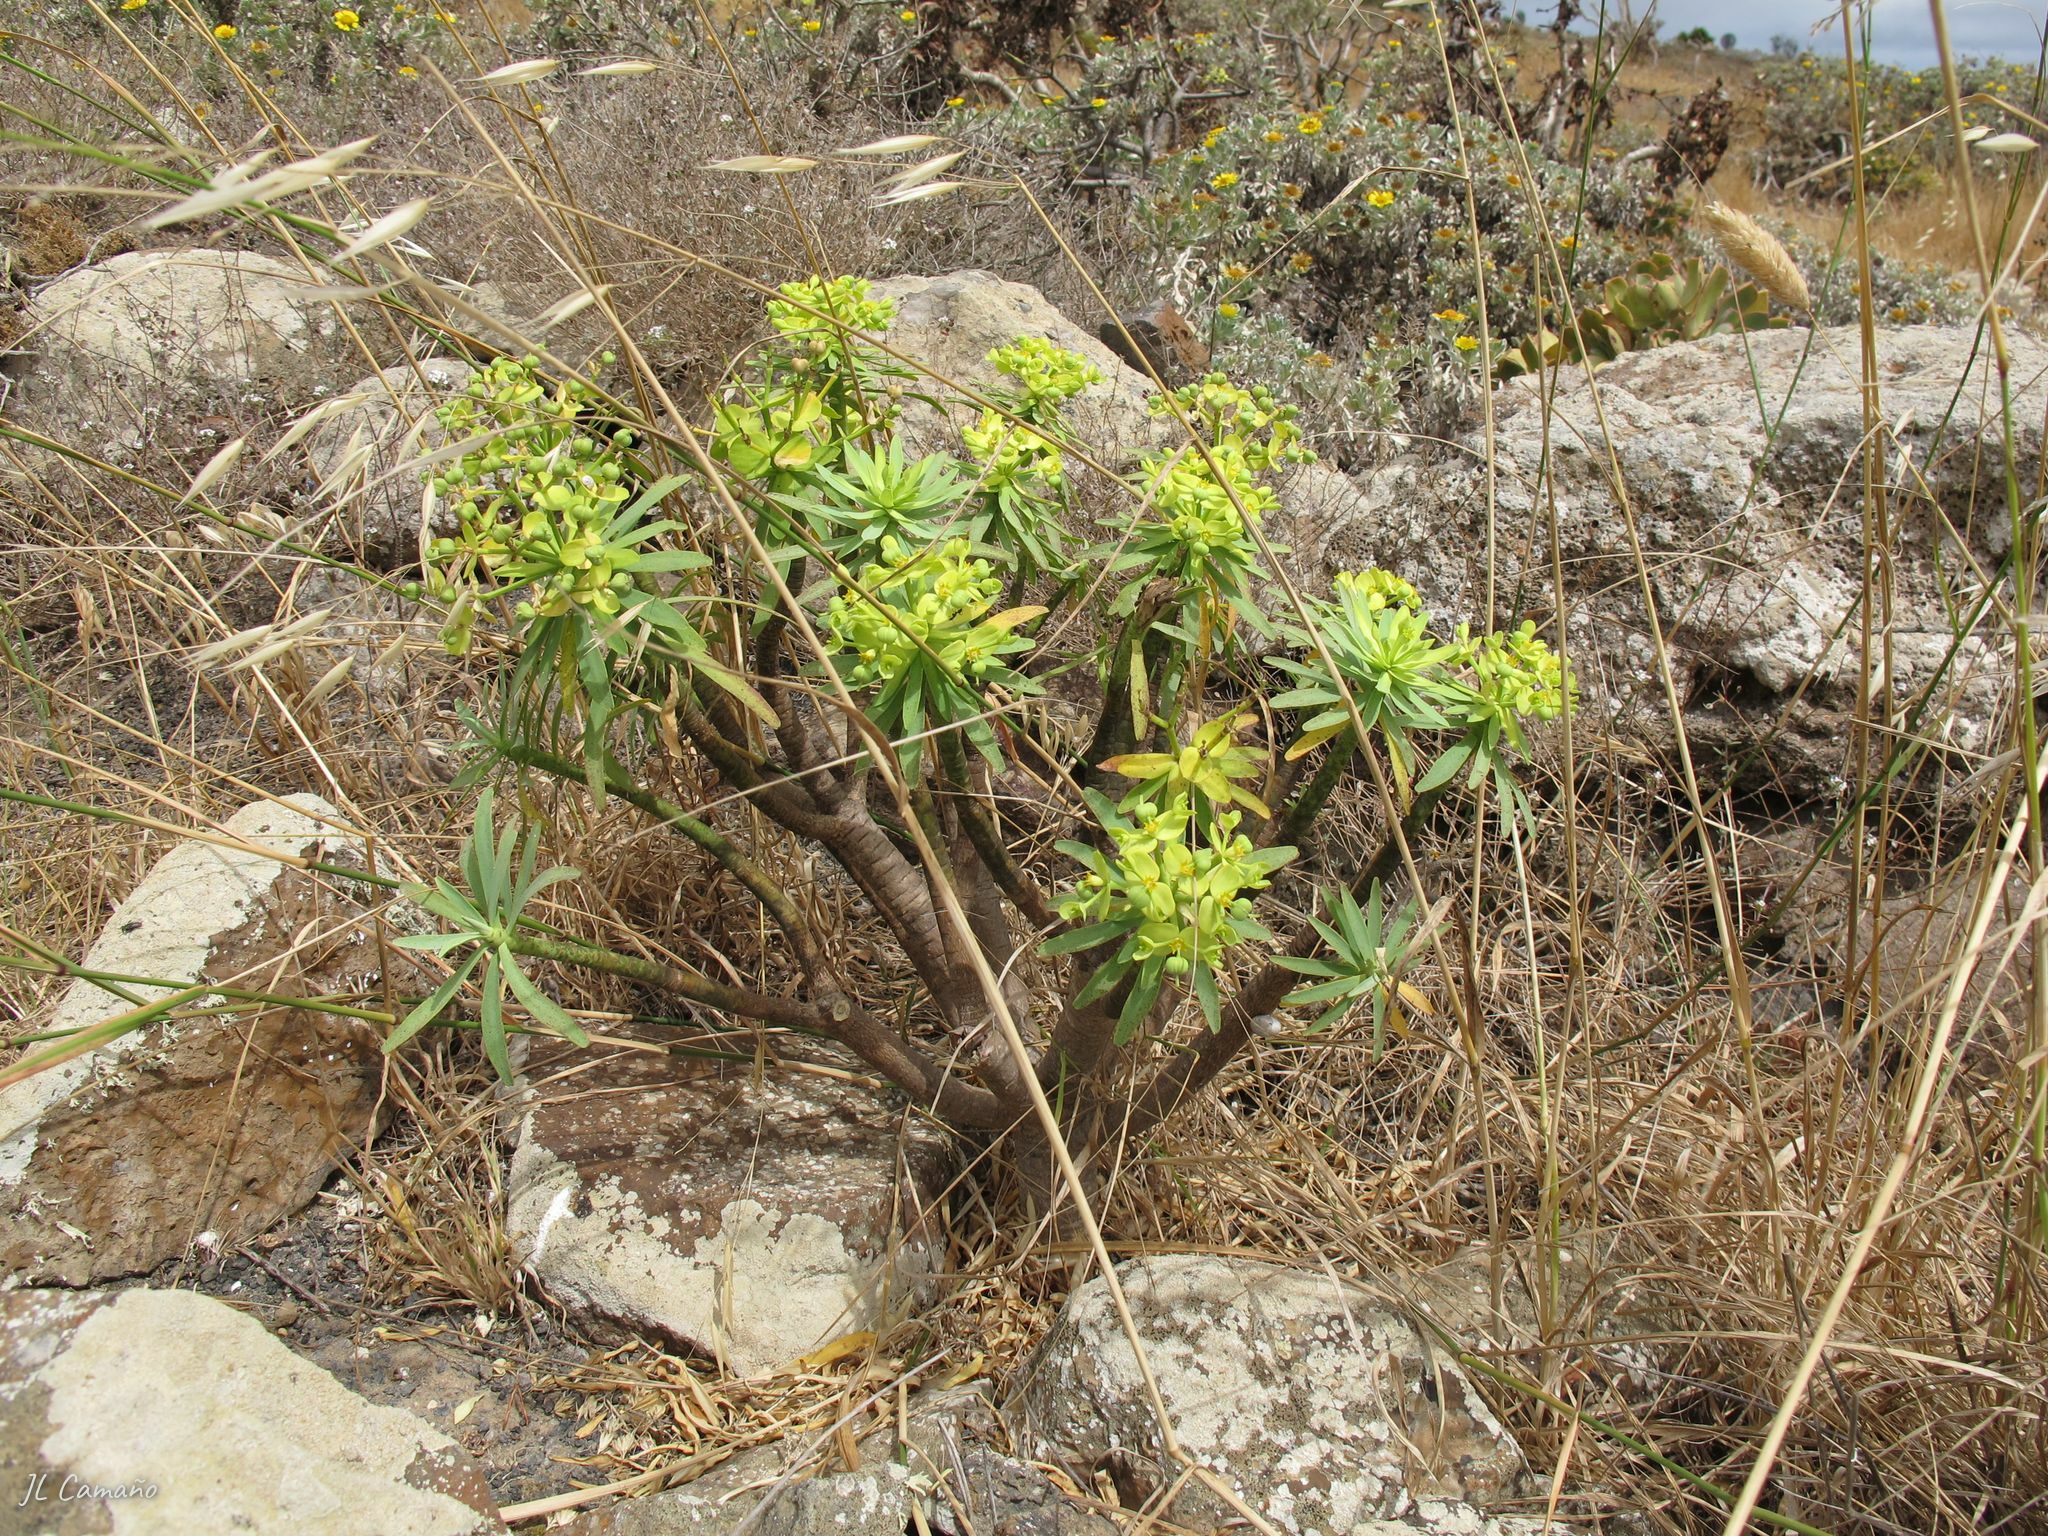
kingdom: Plantae
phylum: Tracheophyta
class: Magnoliopsida
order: Malpighiales
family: Euphorbiaceae
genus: Euphorbia
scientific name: Euphorbia regis-jubae
